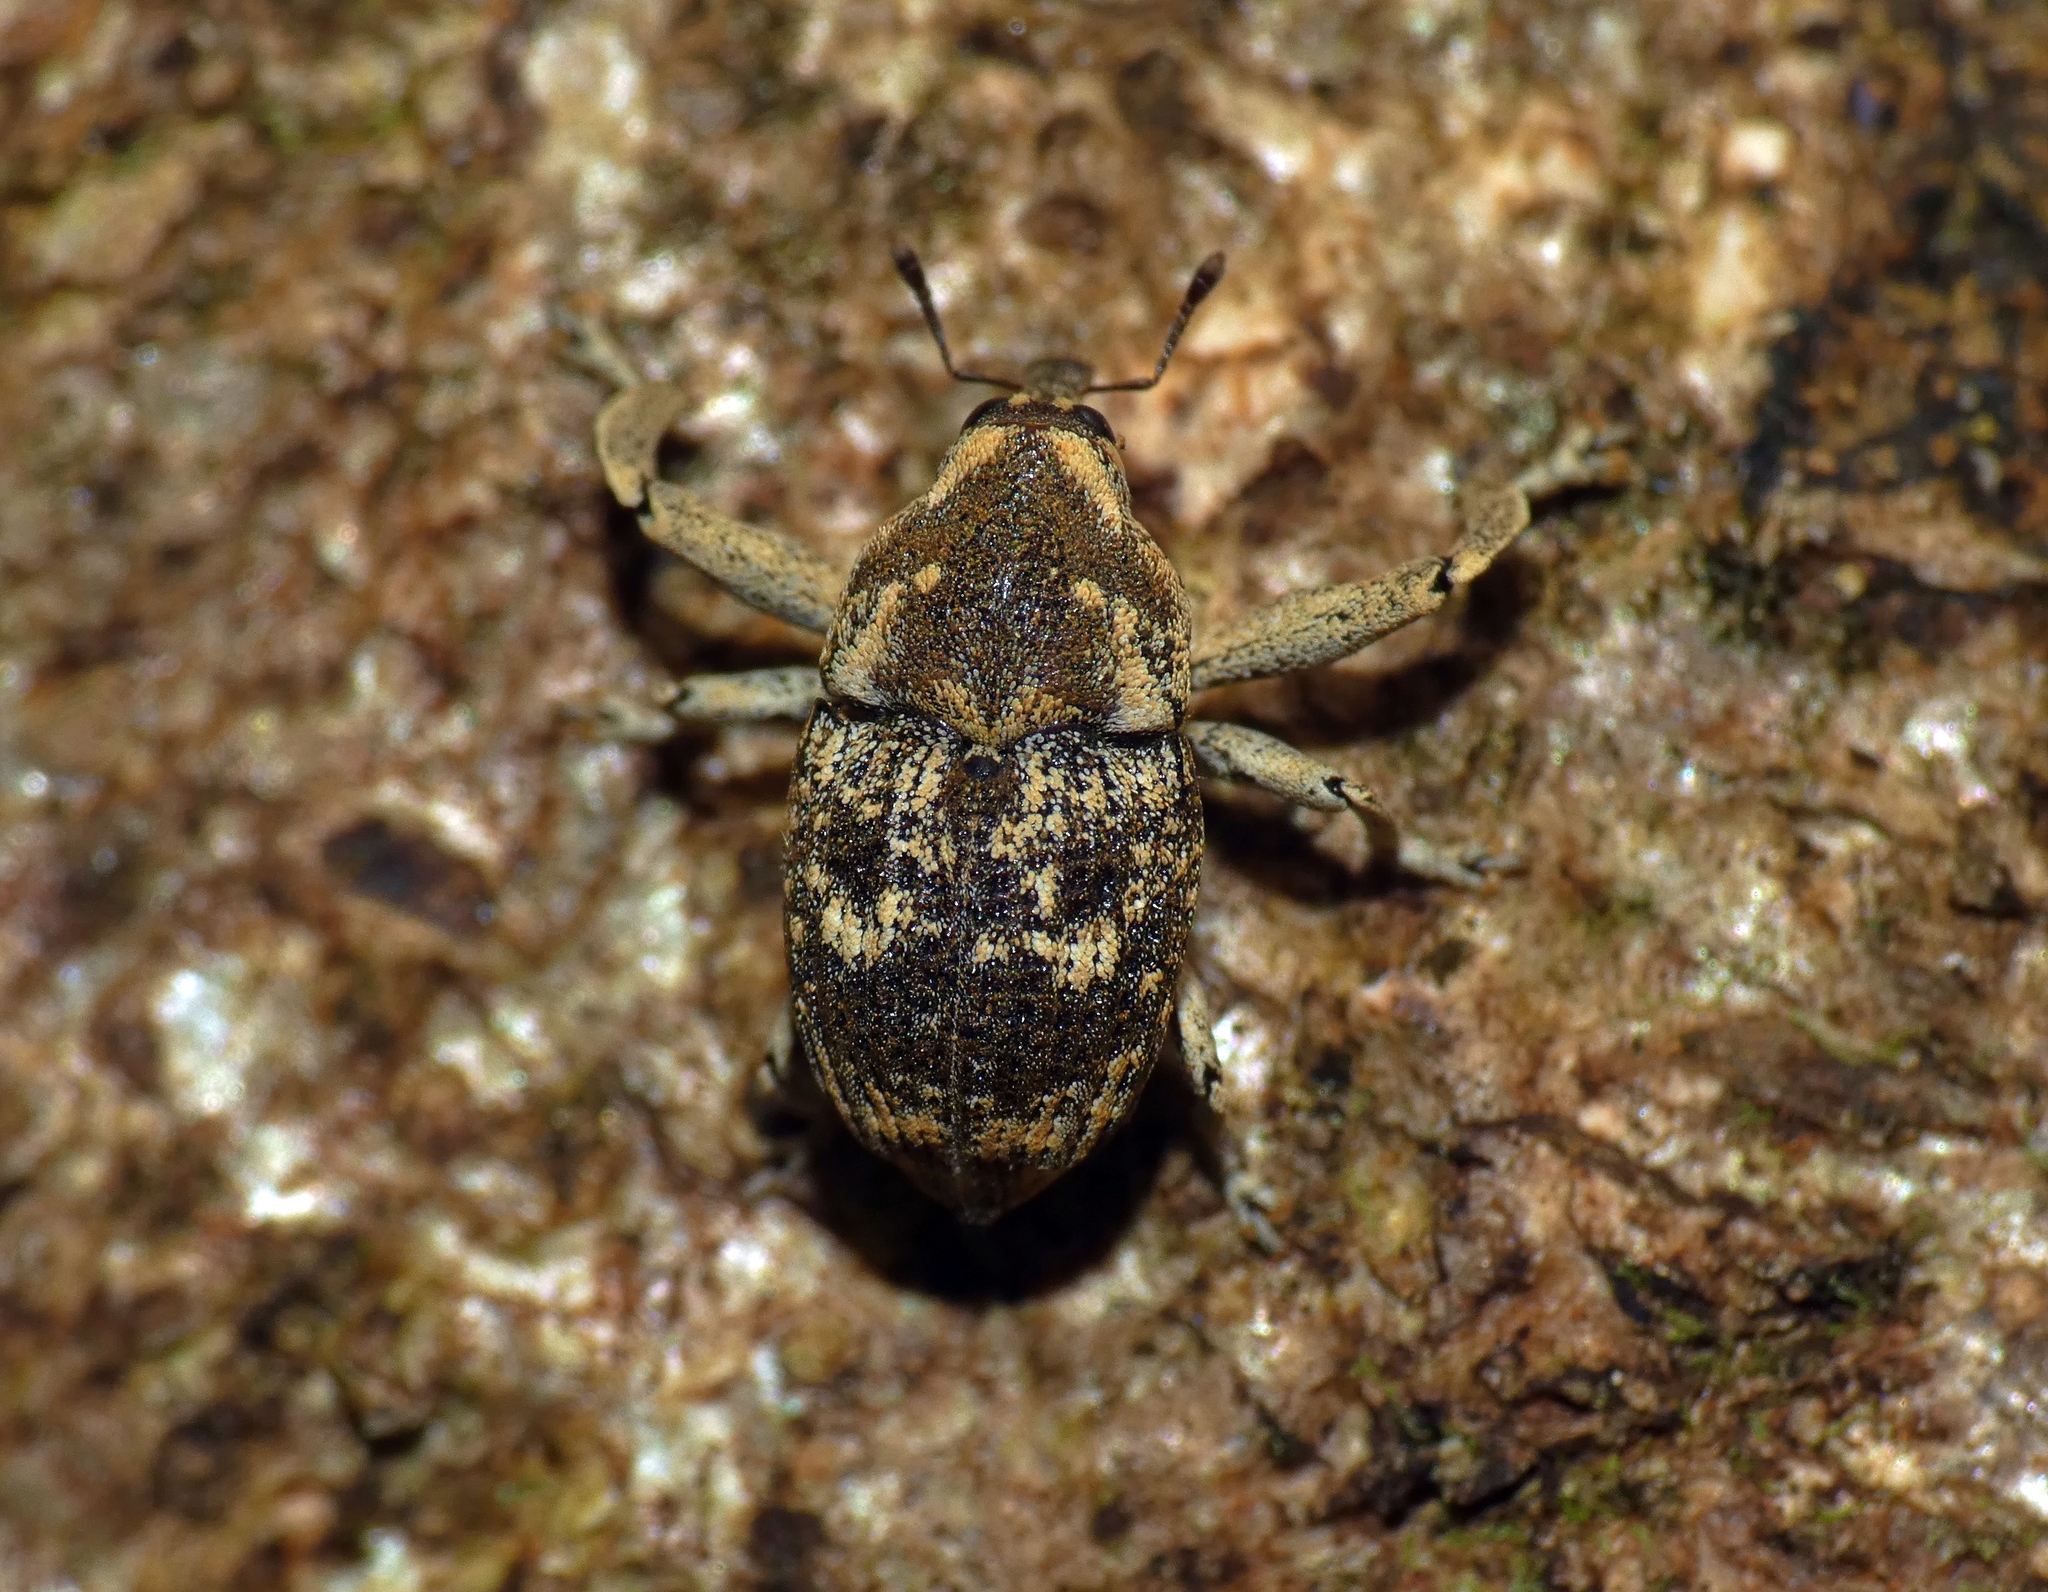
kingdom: Animalia
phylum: Arthropoda
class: Insecta
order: Coleoptera
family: Curculionidae
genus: Eutyrhinus
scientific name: Eutyrhinus meditabundus
